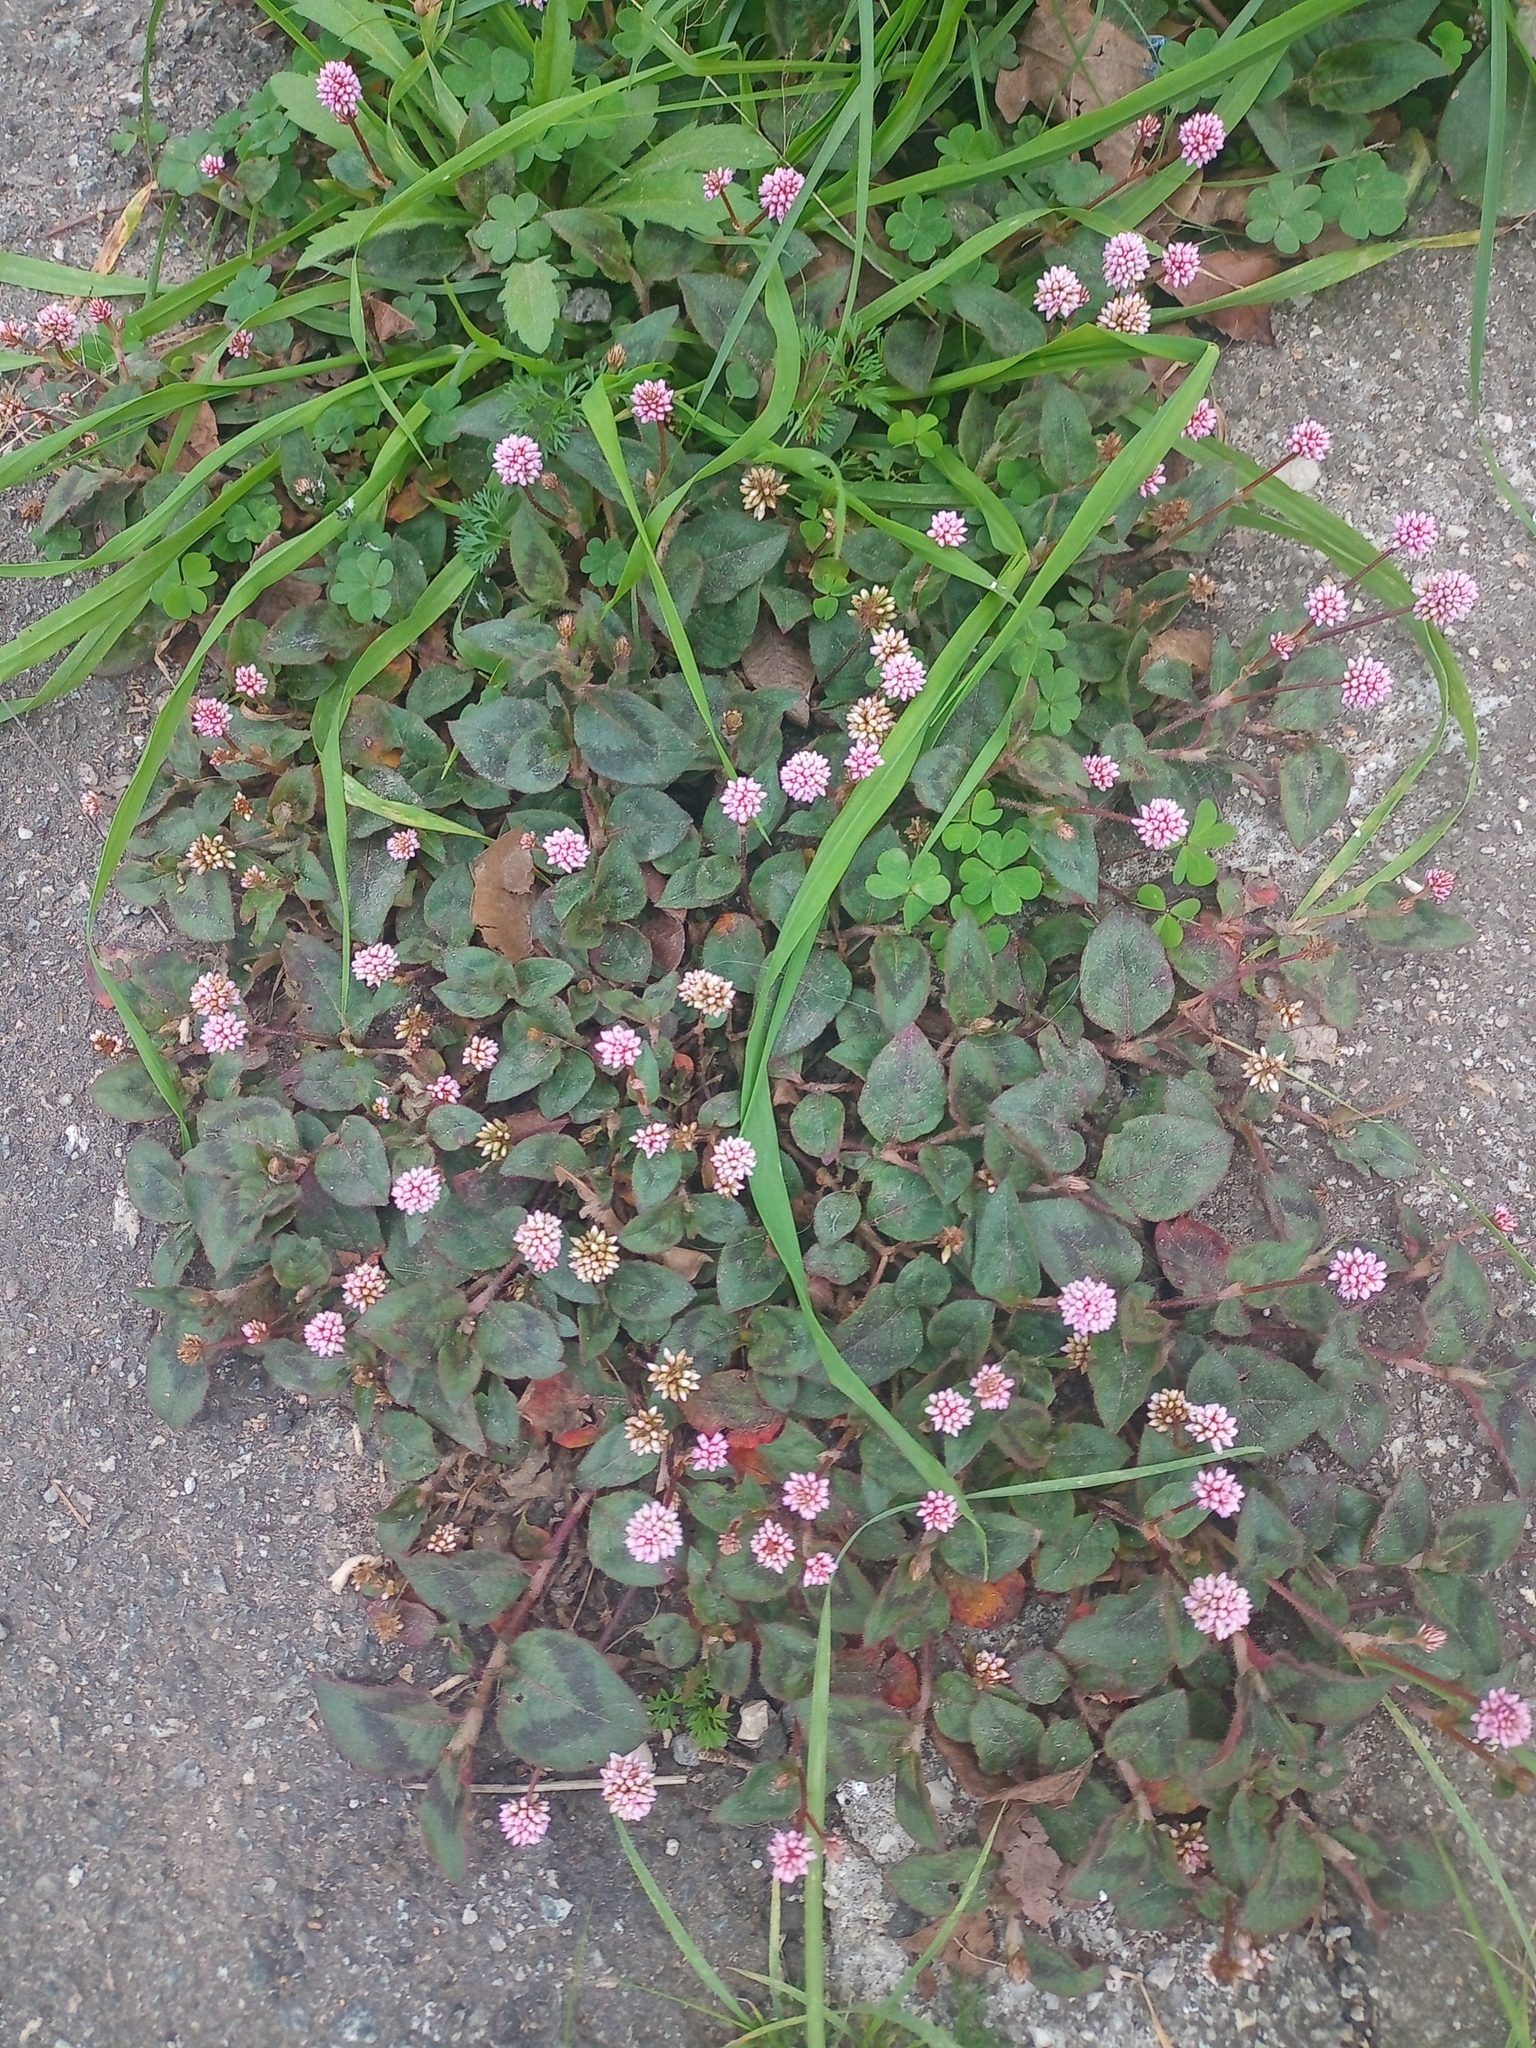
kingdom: Plantae
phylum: Tracheophyta
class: Magnoliopsida
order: Caryophyllales
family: Polygonaceae
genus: Persicaria
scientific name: Persicaria capitata
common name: Pinkhead smartweed
